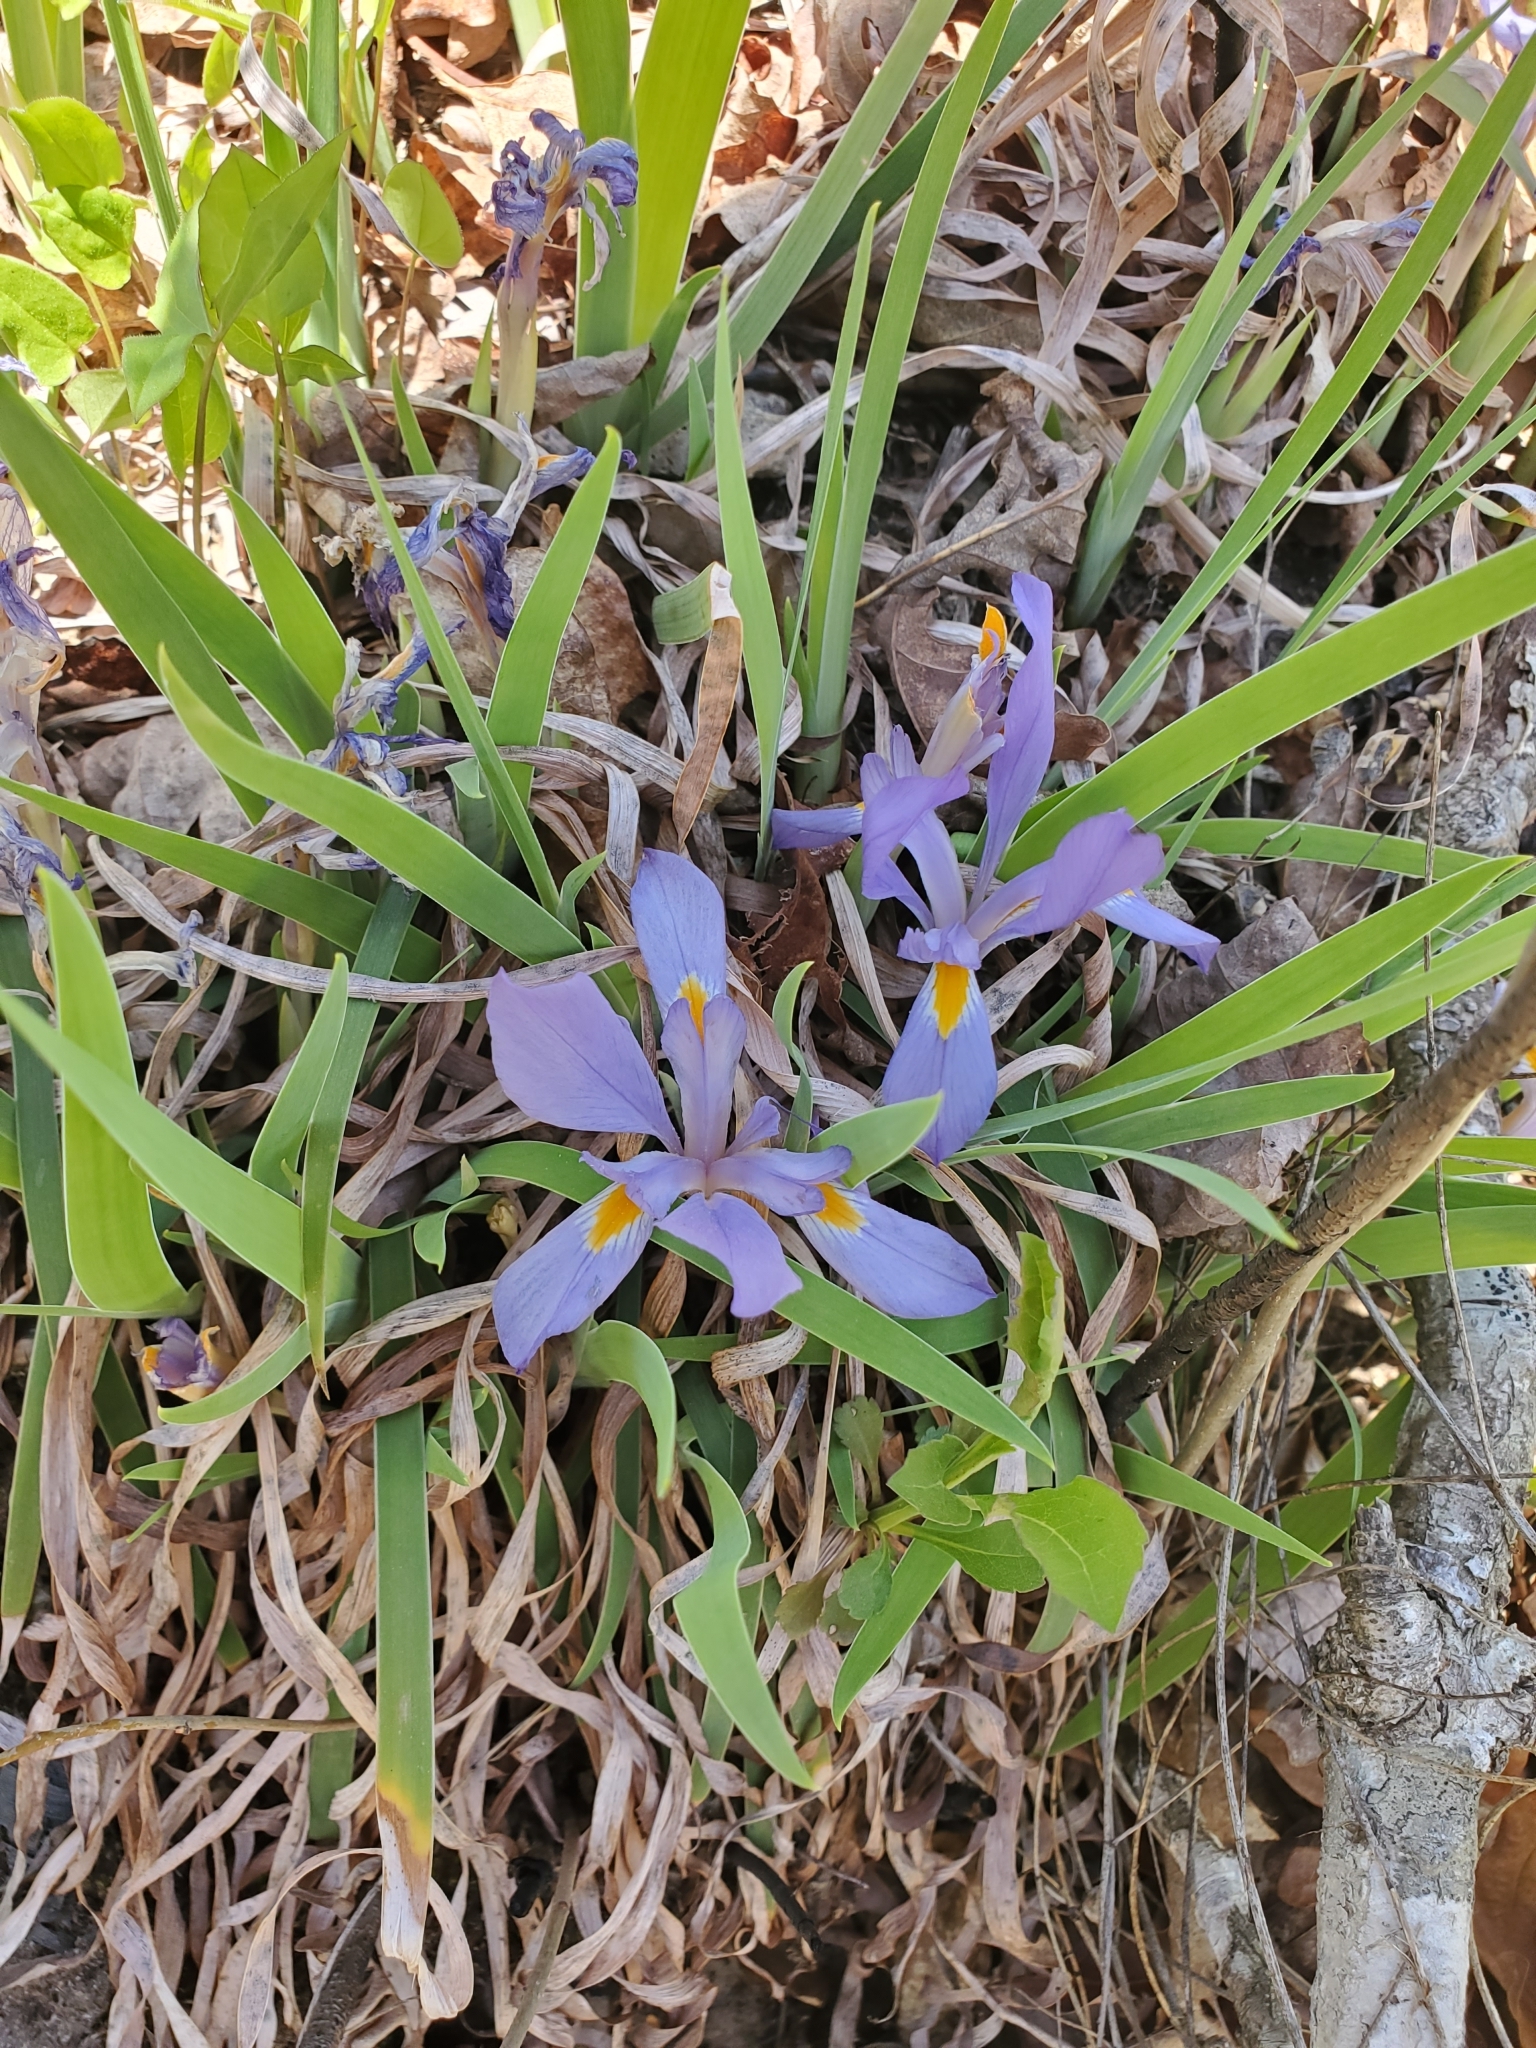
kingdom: Plantae
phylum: Tracheophyta
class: Liliopsida
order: Asparagales
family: Iridaceae
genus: Iris
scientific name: Iris verna
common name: Dwarf iris
